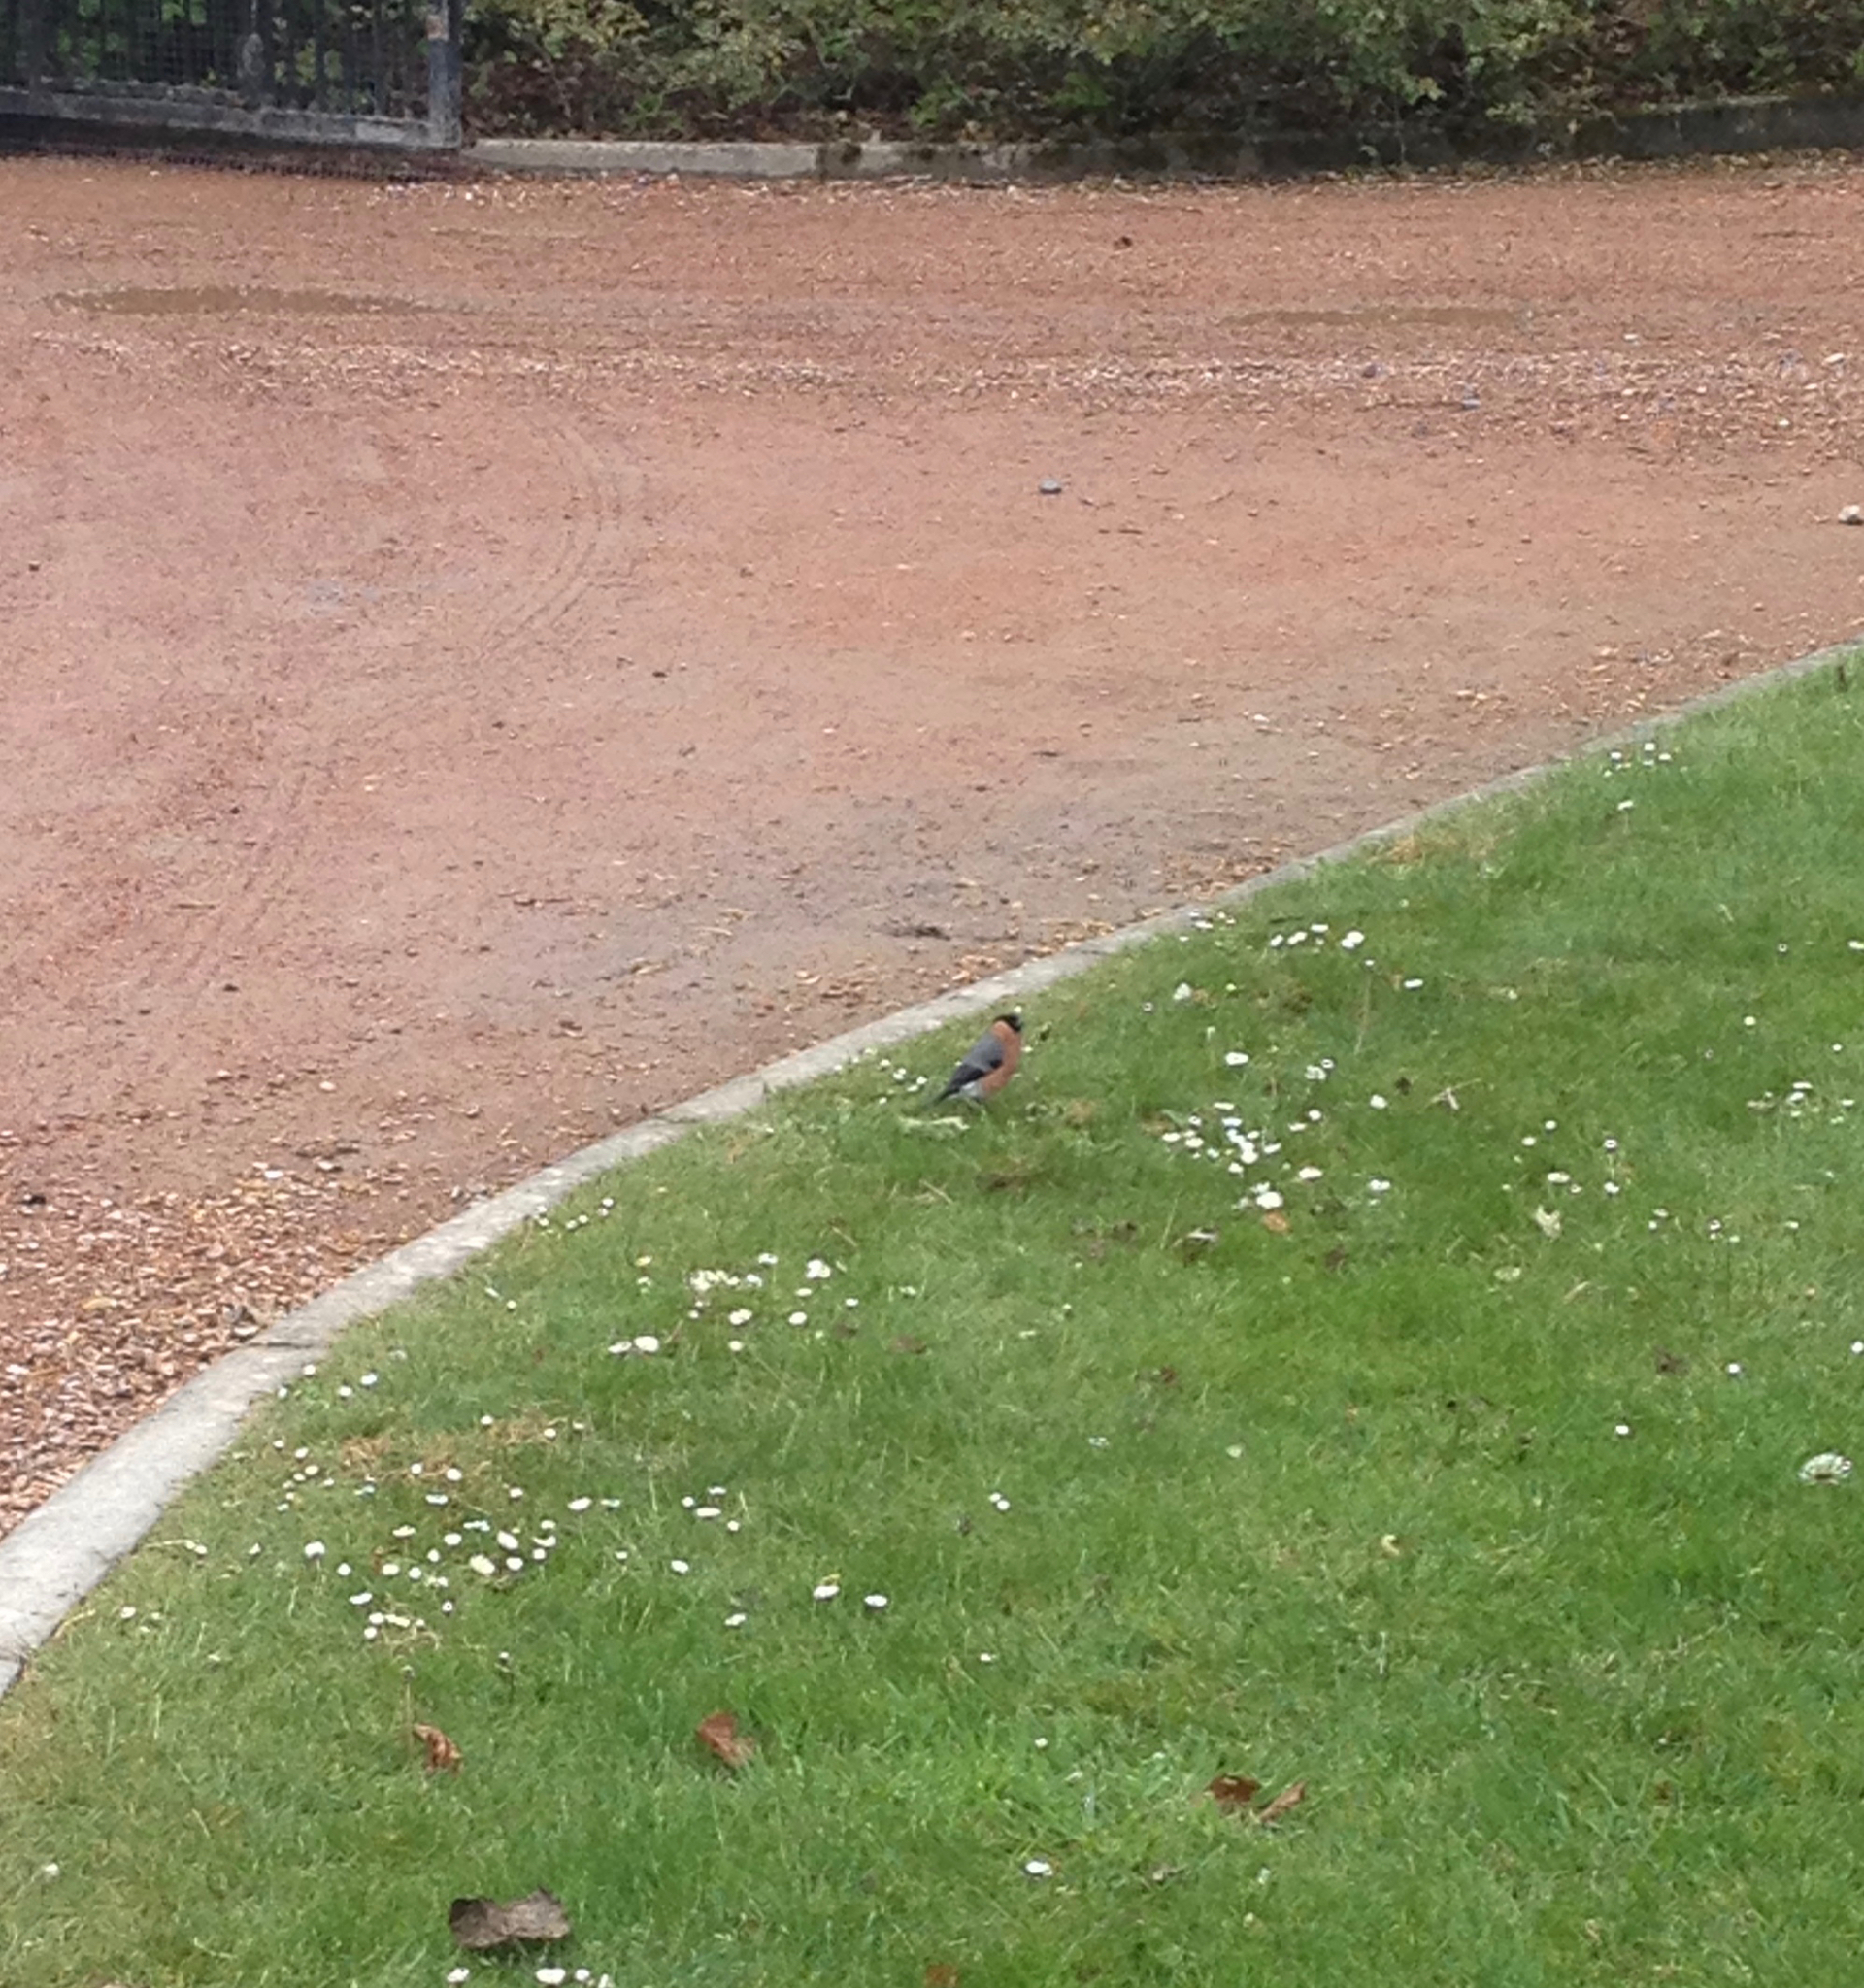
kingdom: Animalia
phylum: Chordata
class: Aves
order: Passeriformes
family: Fringillidae
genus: Pyrrhula
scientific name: Pyrrhula pyrrhula
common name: Eurasian bullfinch
